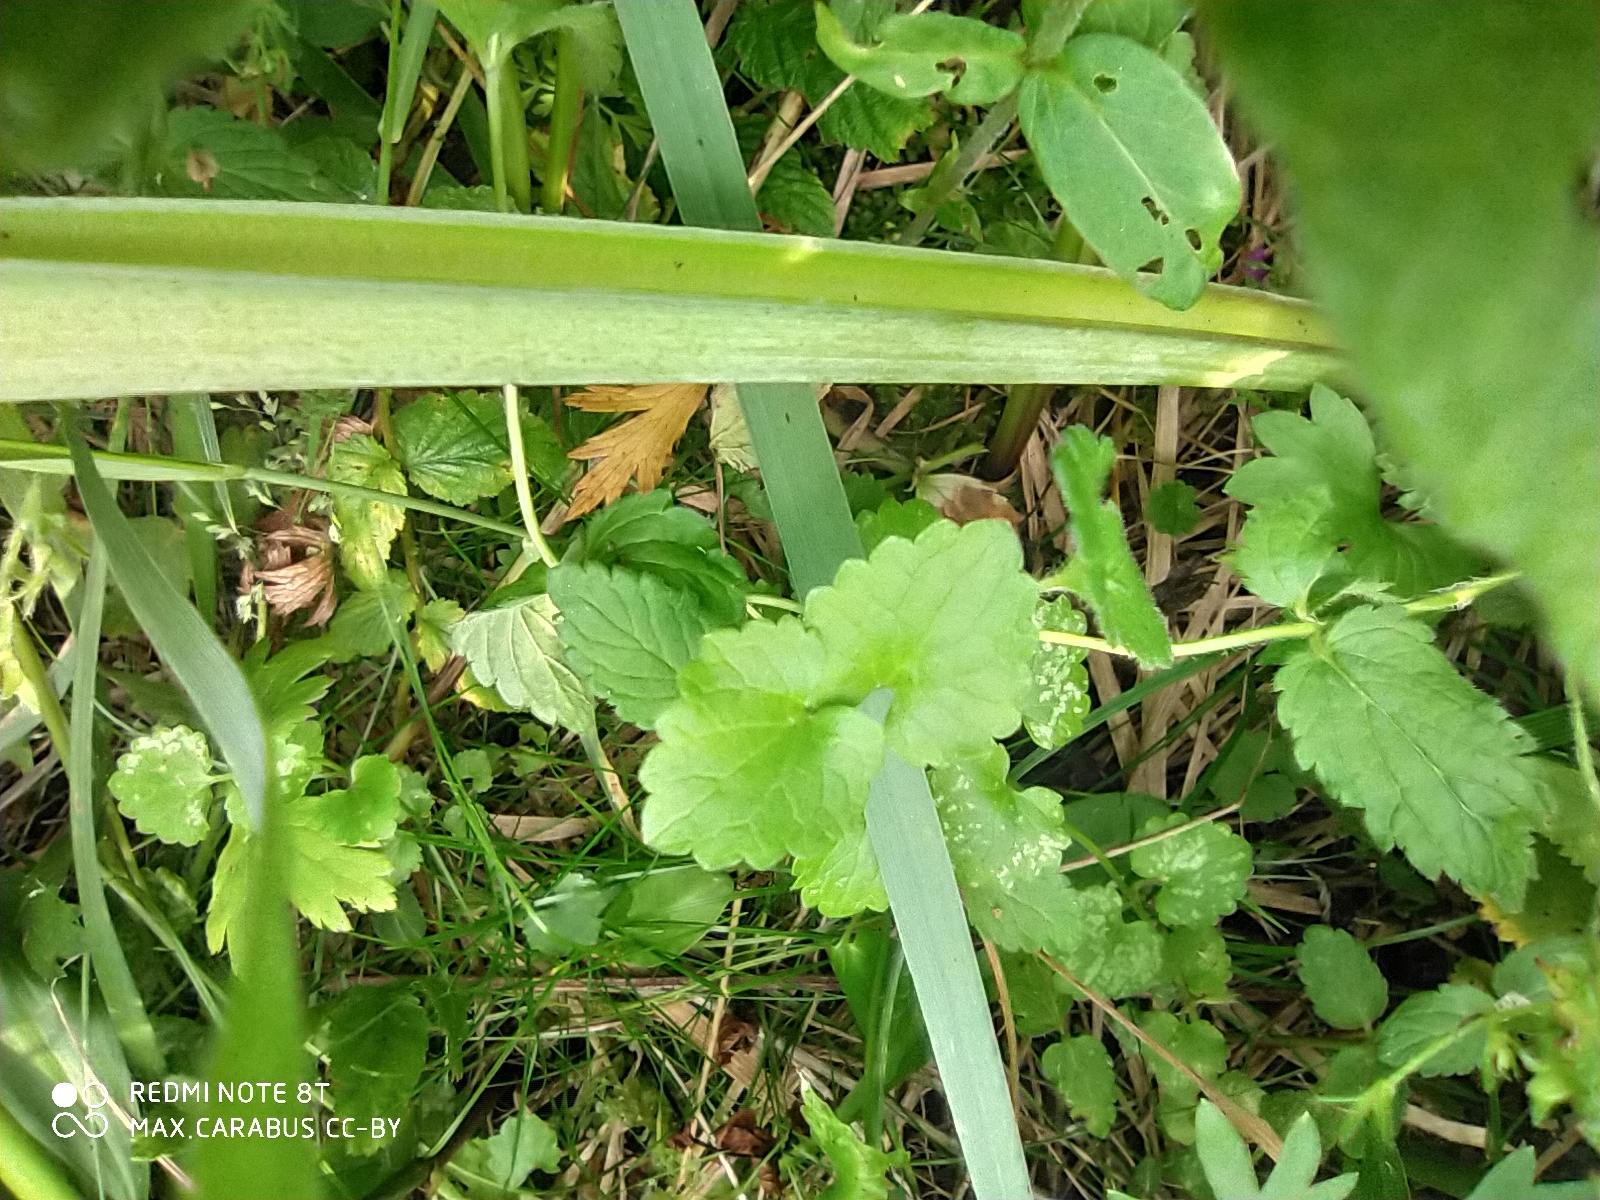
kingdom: Plantae
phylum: Tracheophyta
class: Magnoliopsida
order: Apiales
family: Apiaceae
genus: Angelica
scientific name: Angelica sylvestris
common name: Wild angelica
